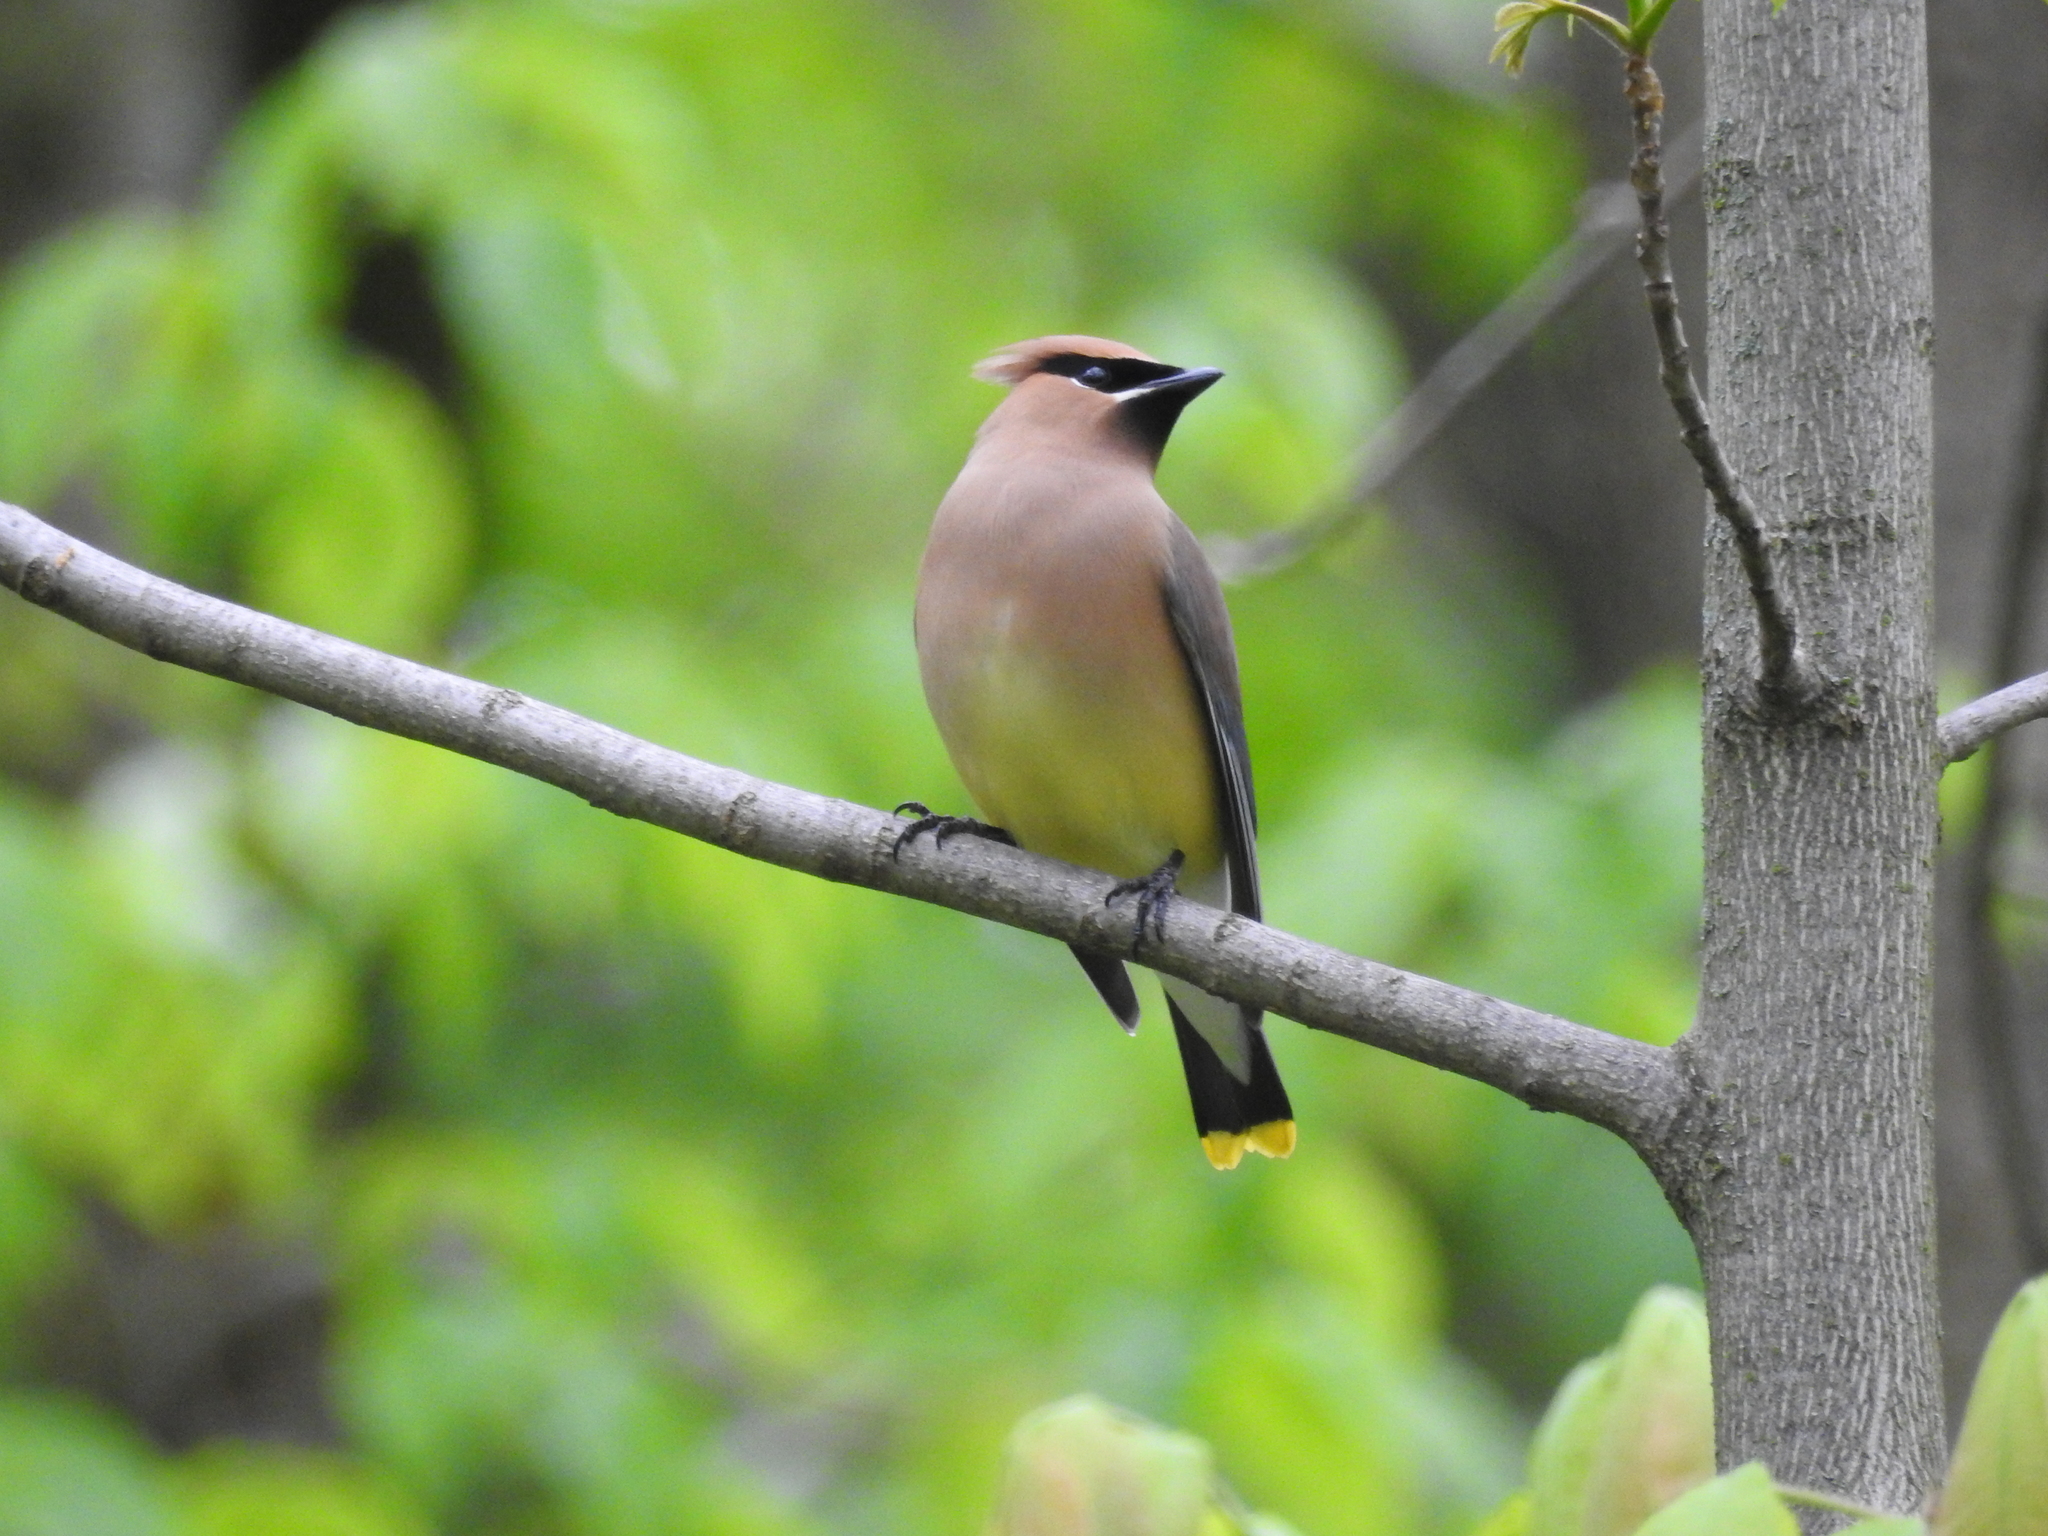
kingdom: Animalia
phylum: Chordata
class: Aves
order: Passeriformes
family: Bombycillidae
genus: Bombycilla
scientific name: Bombycilla cedrorum
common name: Cedar waxwing
